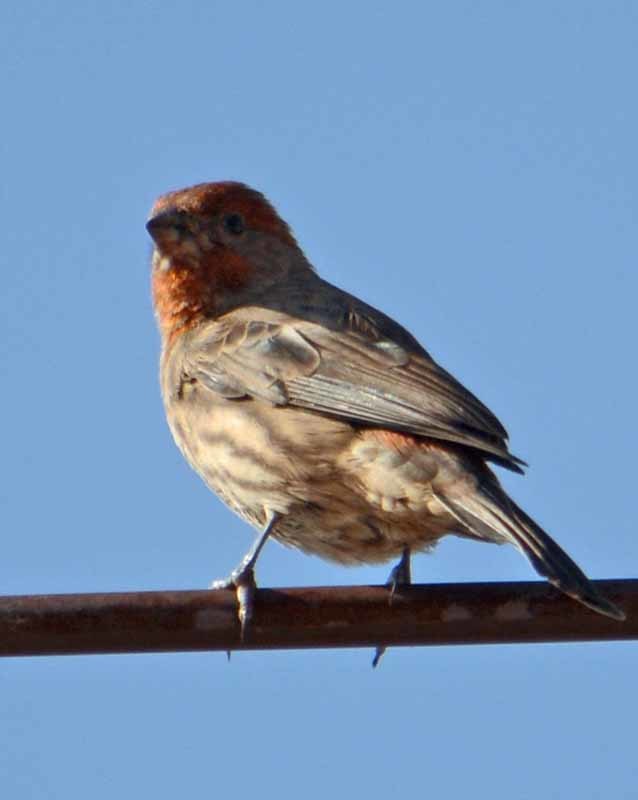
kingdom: Animalia
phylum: Chordata
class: Aves
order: Passeriformes
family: Fringillidae
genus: Haemorhous
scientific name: Haemorhous mexicanus
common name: House finch
